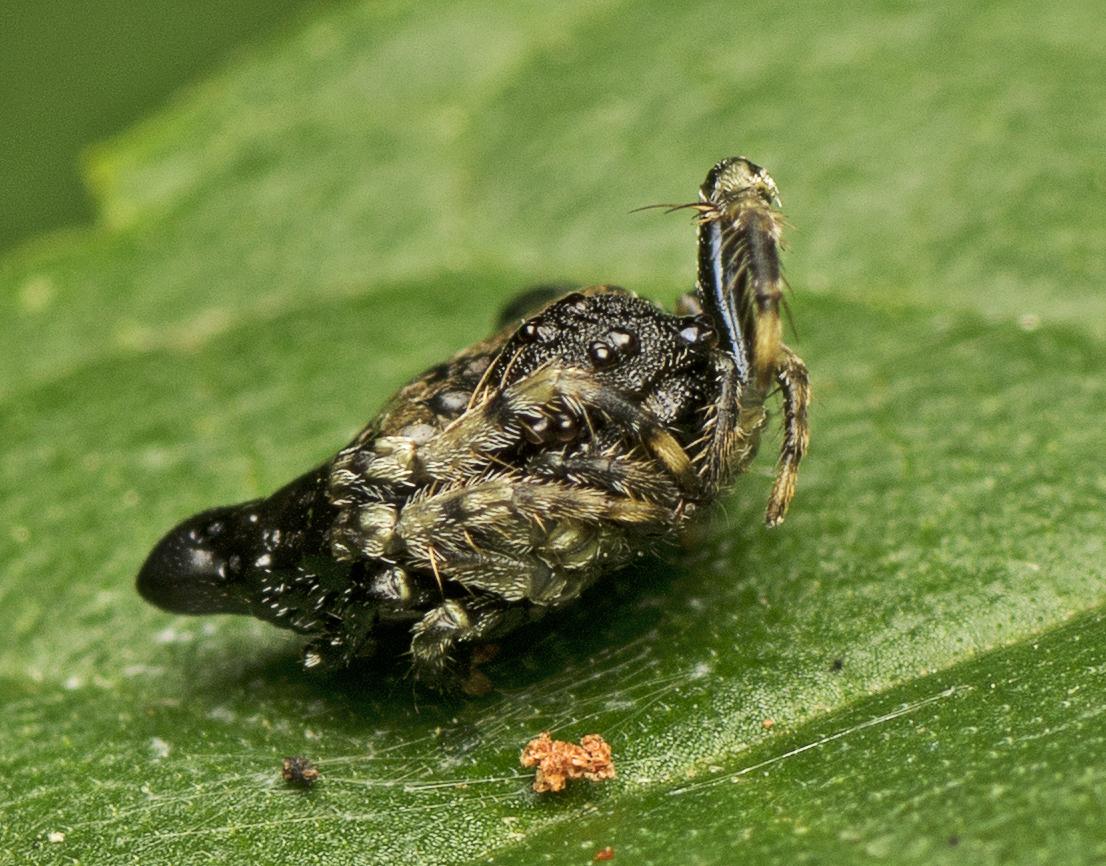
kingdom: Animalia
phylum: Arthropoda
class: Arachnida
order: Araneae
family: Arkyidae
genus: Arkys
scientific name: Arkys curtulus
